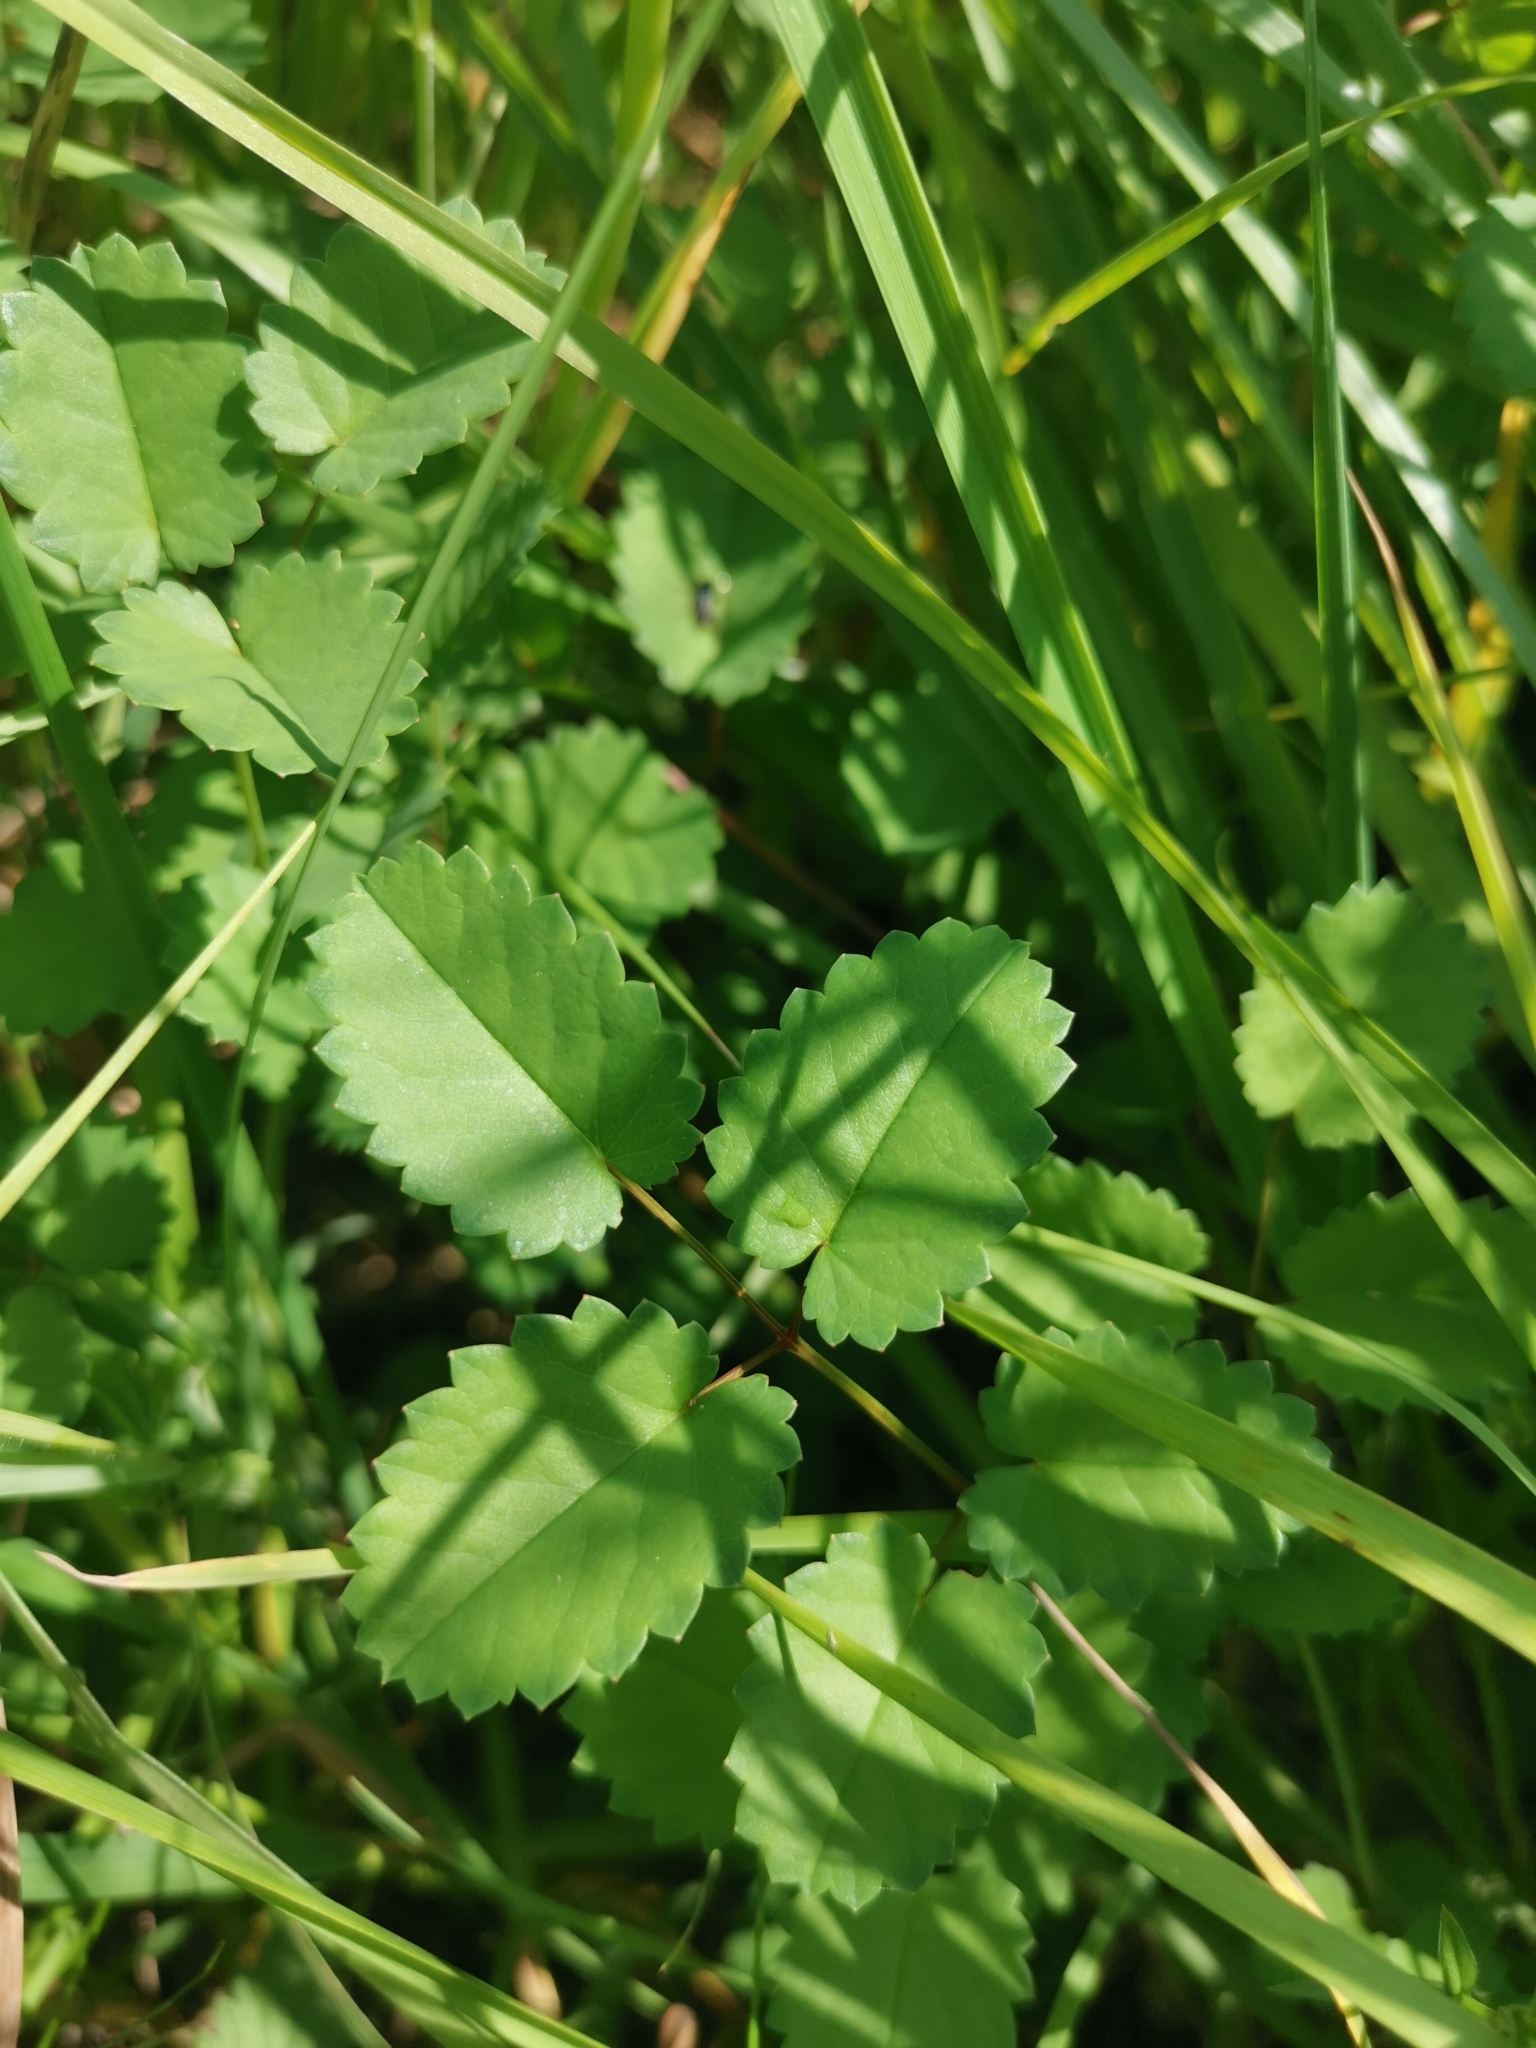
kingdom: Plantae
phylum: Tracheophyta
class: Magnoliopsida
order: Rosales
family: Rosaceae
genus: Sanguisorba
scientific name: Sanguisorba officinalis
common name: Great burnet
